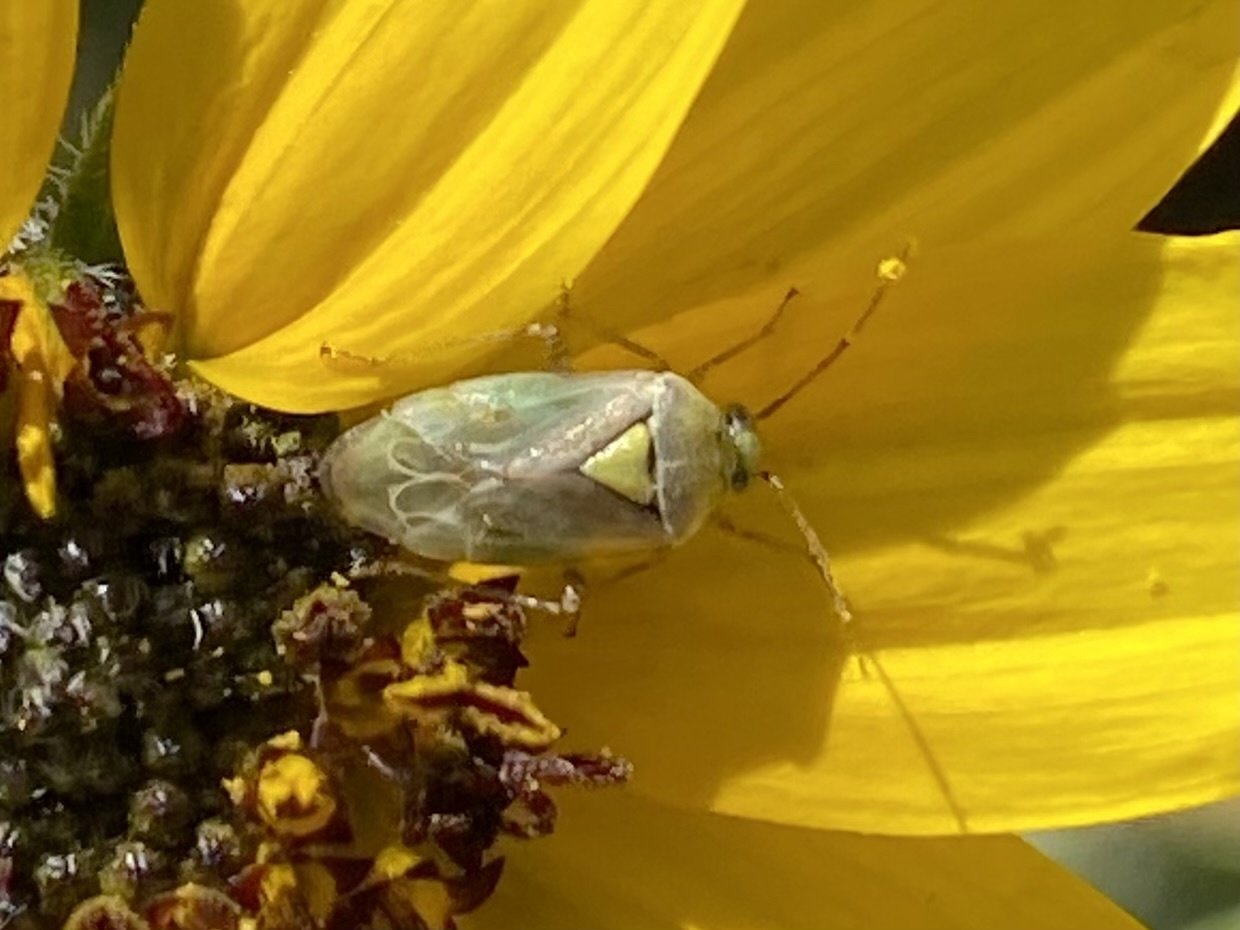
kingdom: Animalia
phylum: Arthropoda
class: Insecta
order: Hemiptera
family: Miridae
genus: Lygus
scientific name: Lygus elisus
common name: Pale legume bug
